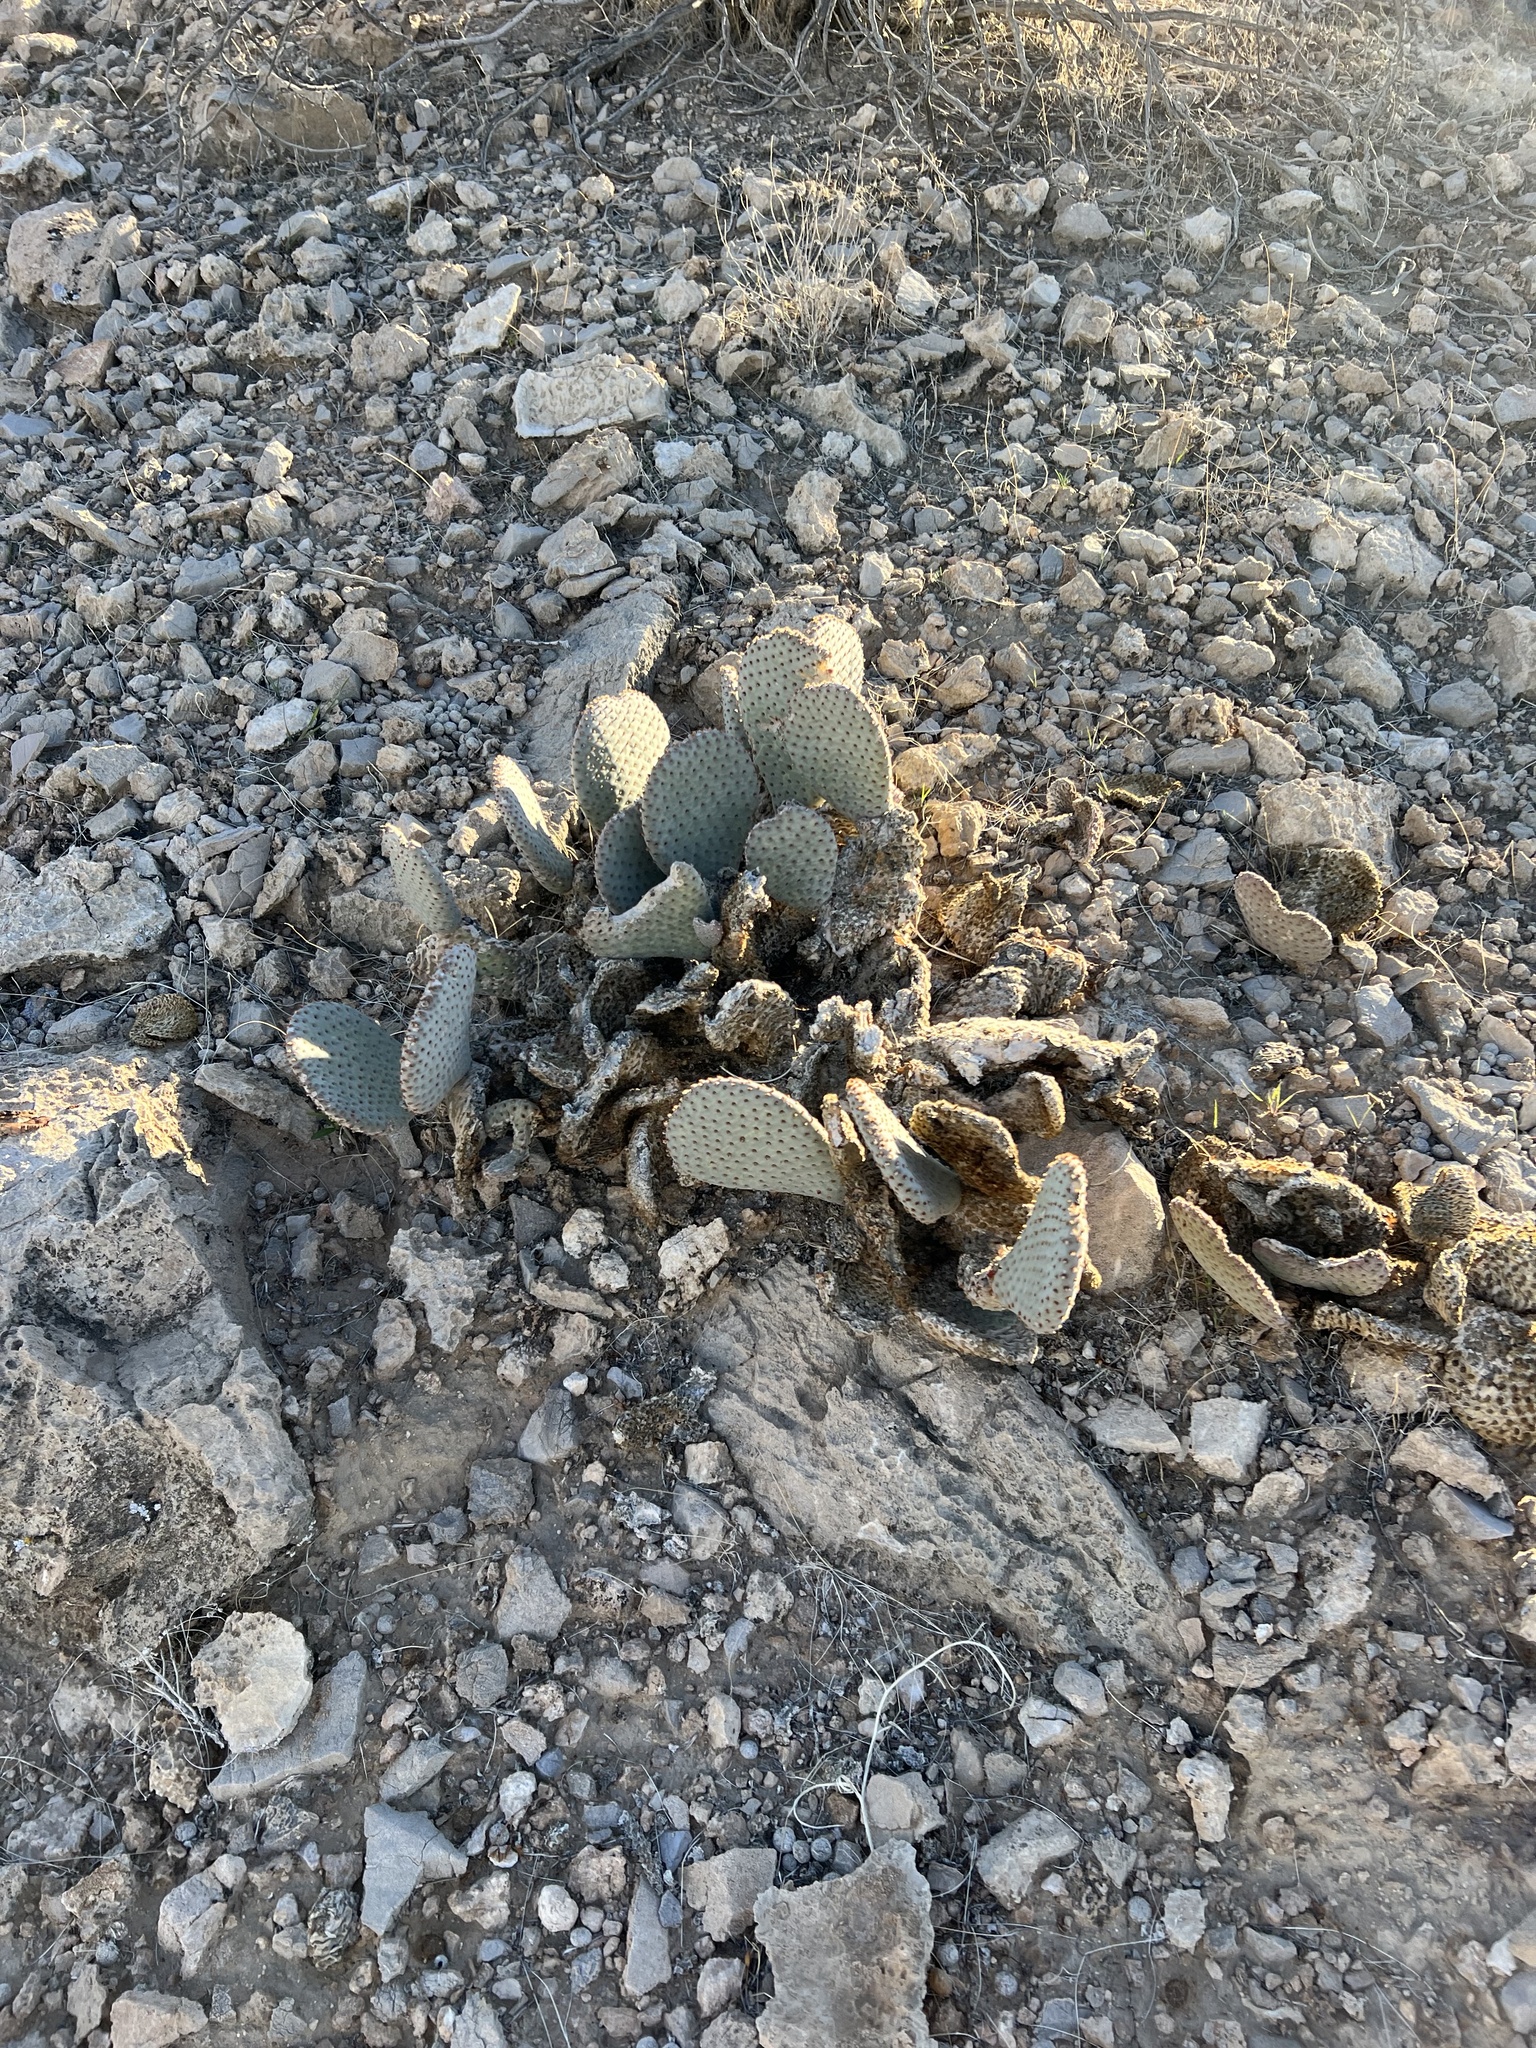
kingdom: Plantae
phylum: Tracheophyta
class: Magnoliopsida
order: Caryophyllales
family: Cactaceae
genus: Opuntia
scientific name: Opuntia basilaris
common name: Beavertail prickly-pear
